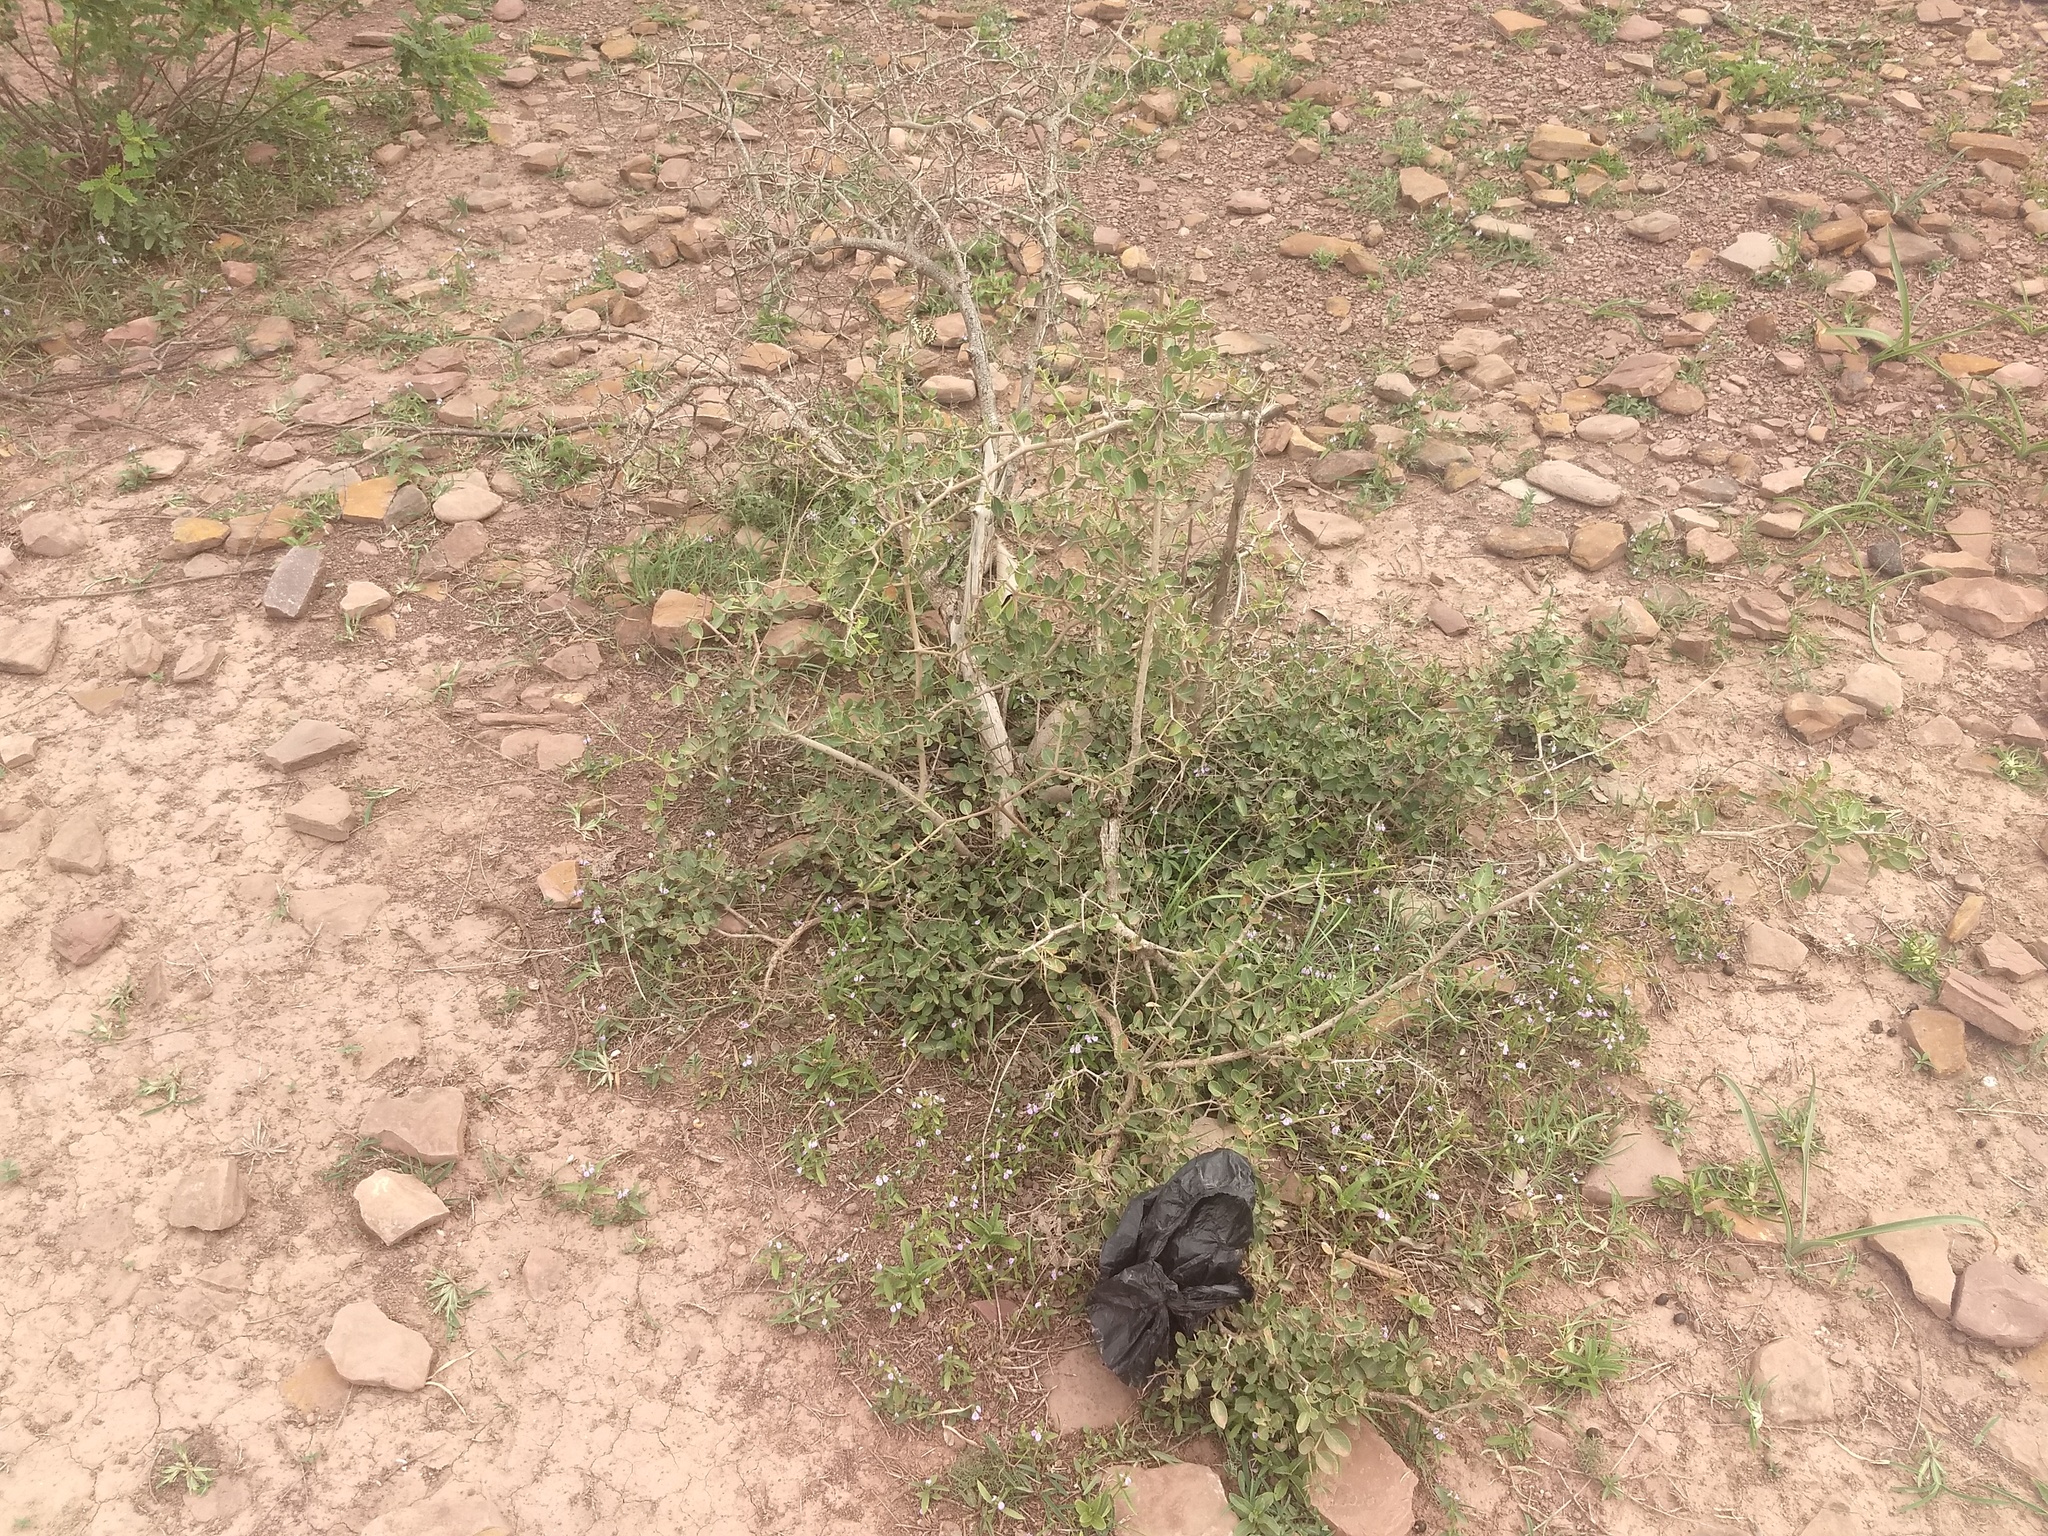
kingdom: Plantae
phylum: Tracheophyta
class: Magnoliopsida
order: Gentianales
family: Apocynaceae
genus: Carissa
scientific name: Carissa carandas
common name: Karanda
